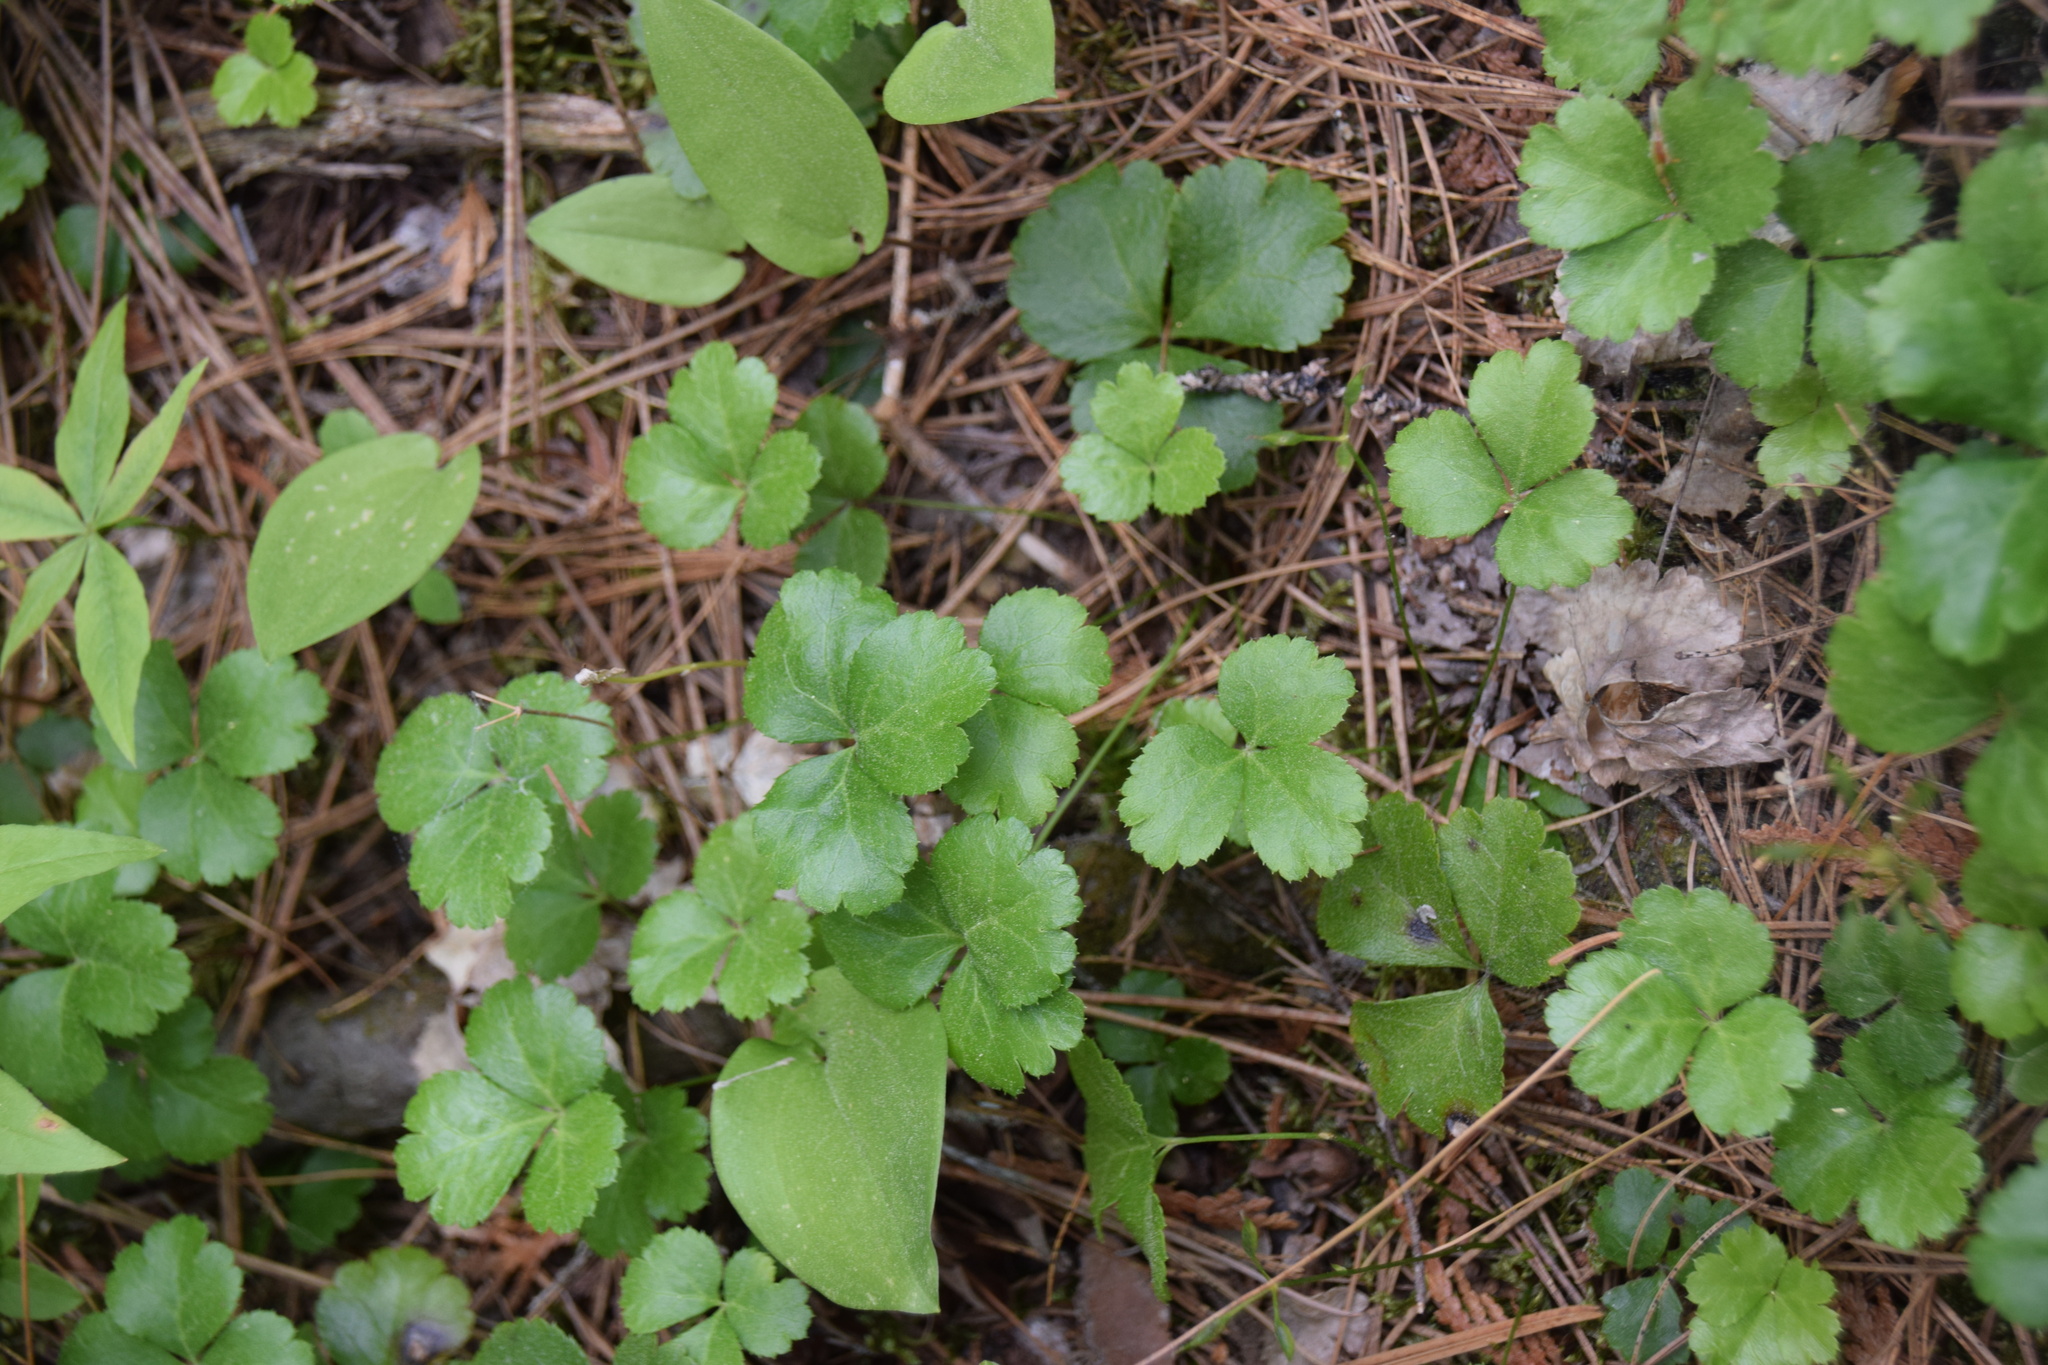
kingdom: Plantae
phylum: Tracheophyta
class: Magnoliopsida
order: Ranunculales
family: Ranunculaceae
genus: Coptis
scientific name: Coptis trifolia
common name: Canker-root
